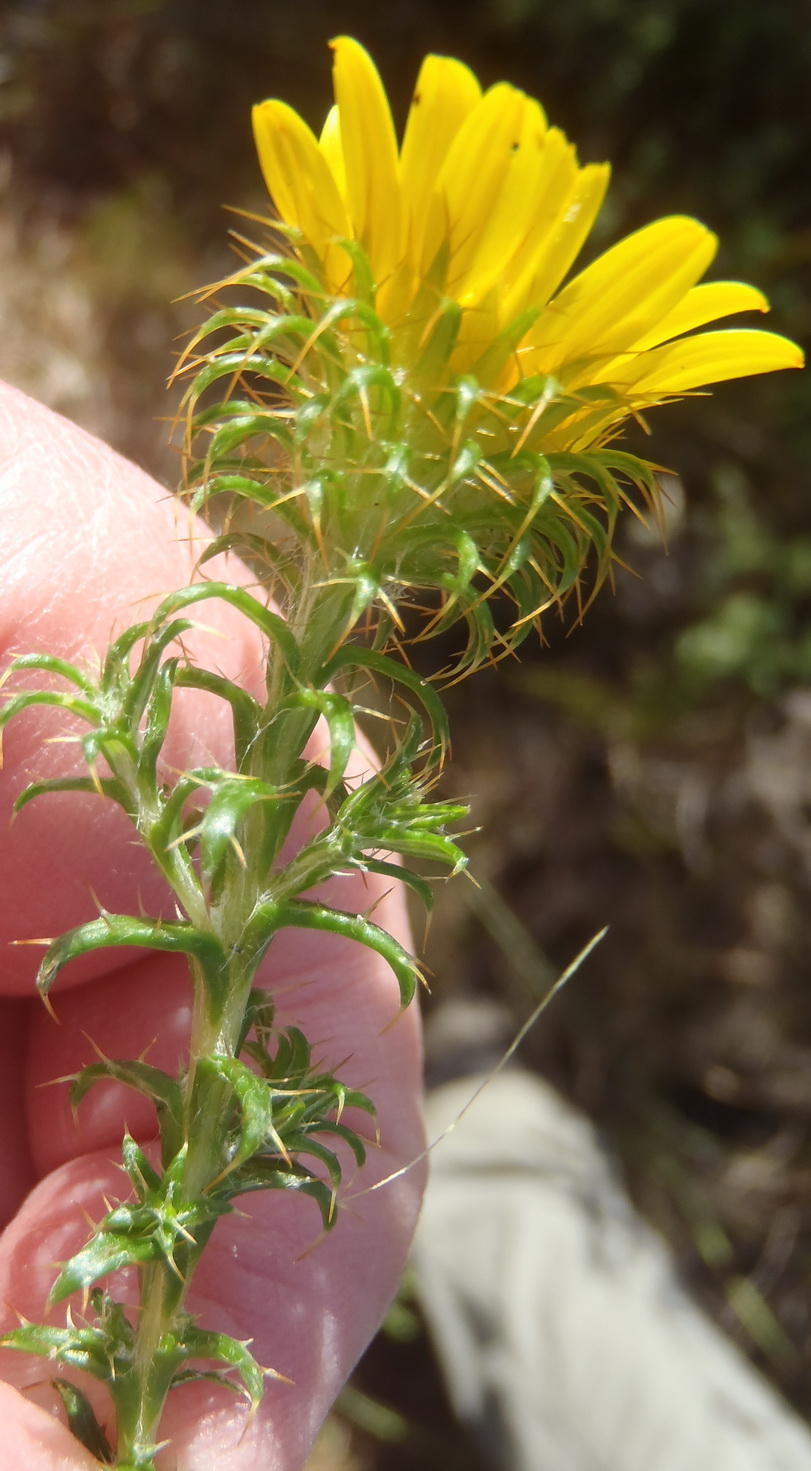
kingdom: Plantae
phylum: Tracheophyta
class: Magnoliopsida
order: Asterales
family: Asteraceae
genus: Cullumia
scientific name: Cullumia decurrens
